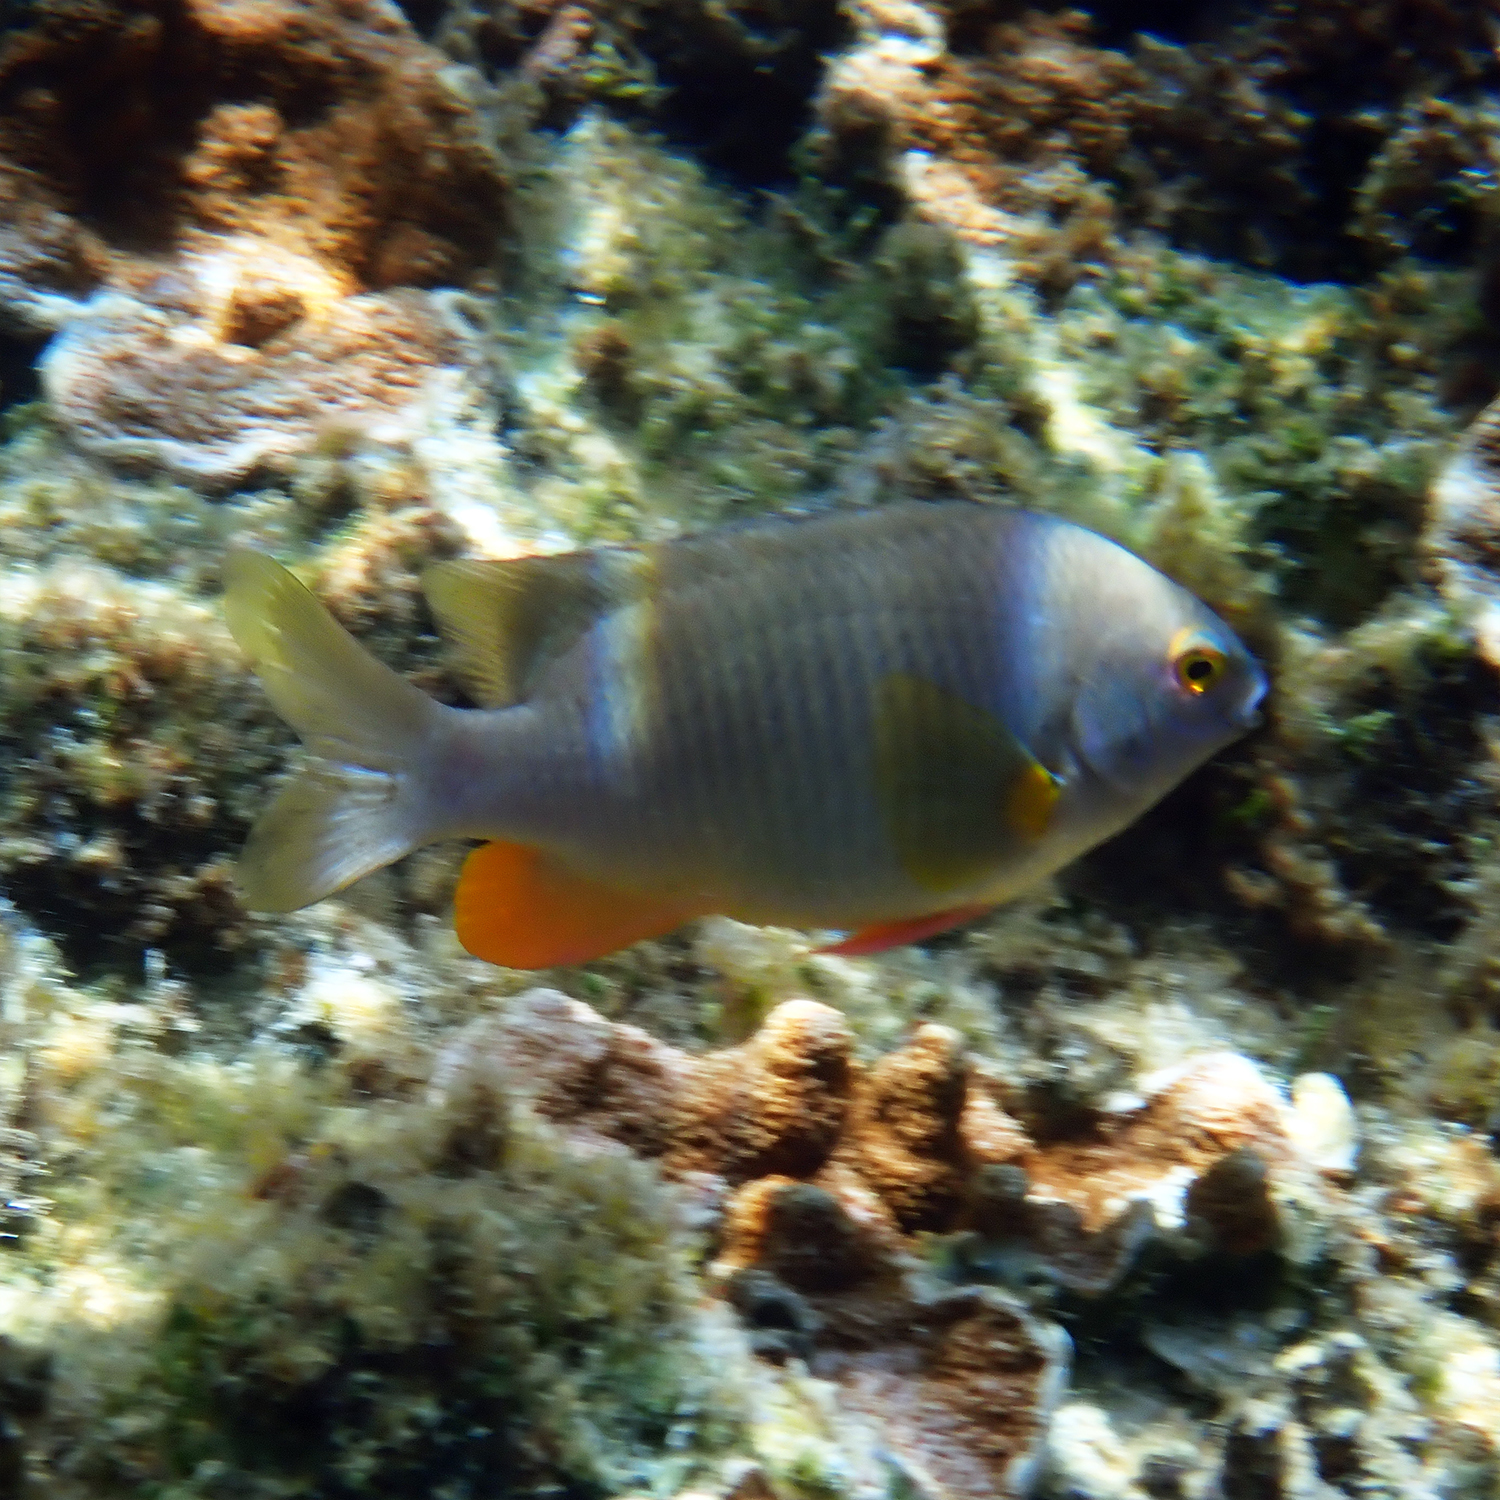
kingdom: Animalia
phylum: Chordata
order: Perciformes
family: Pomacentridae
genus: Stegastes
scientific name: Stegastes gascoynei
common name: Coral sea gregory
